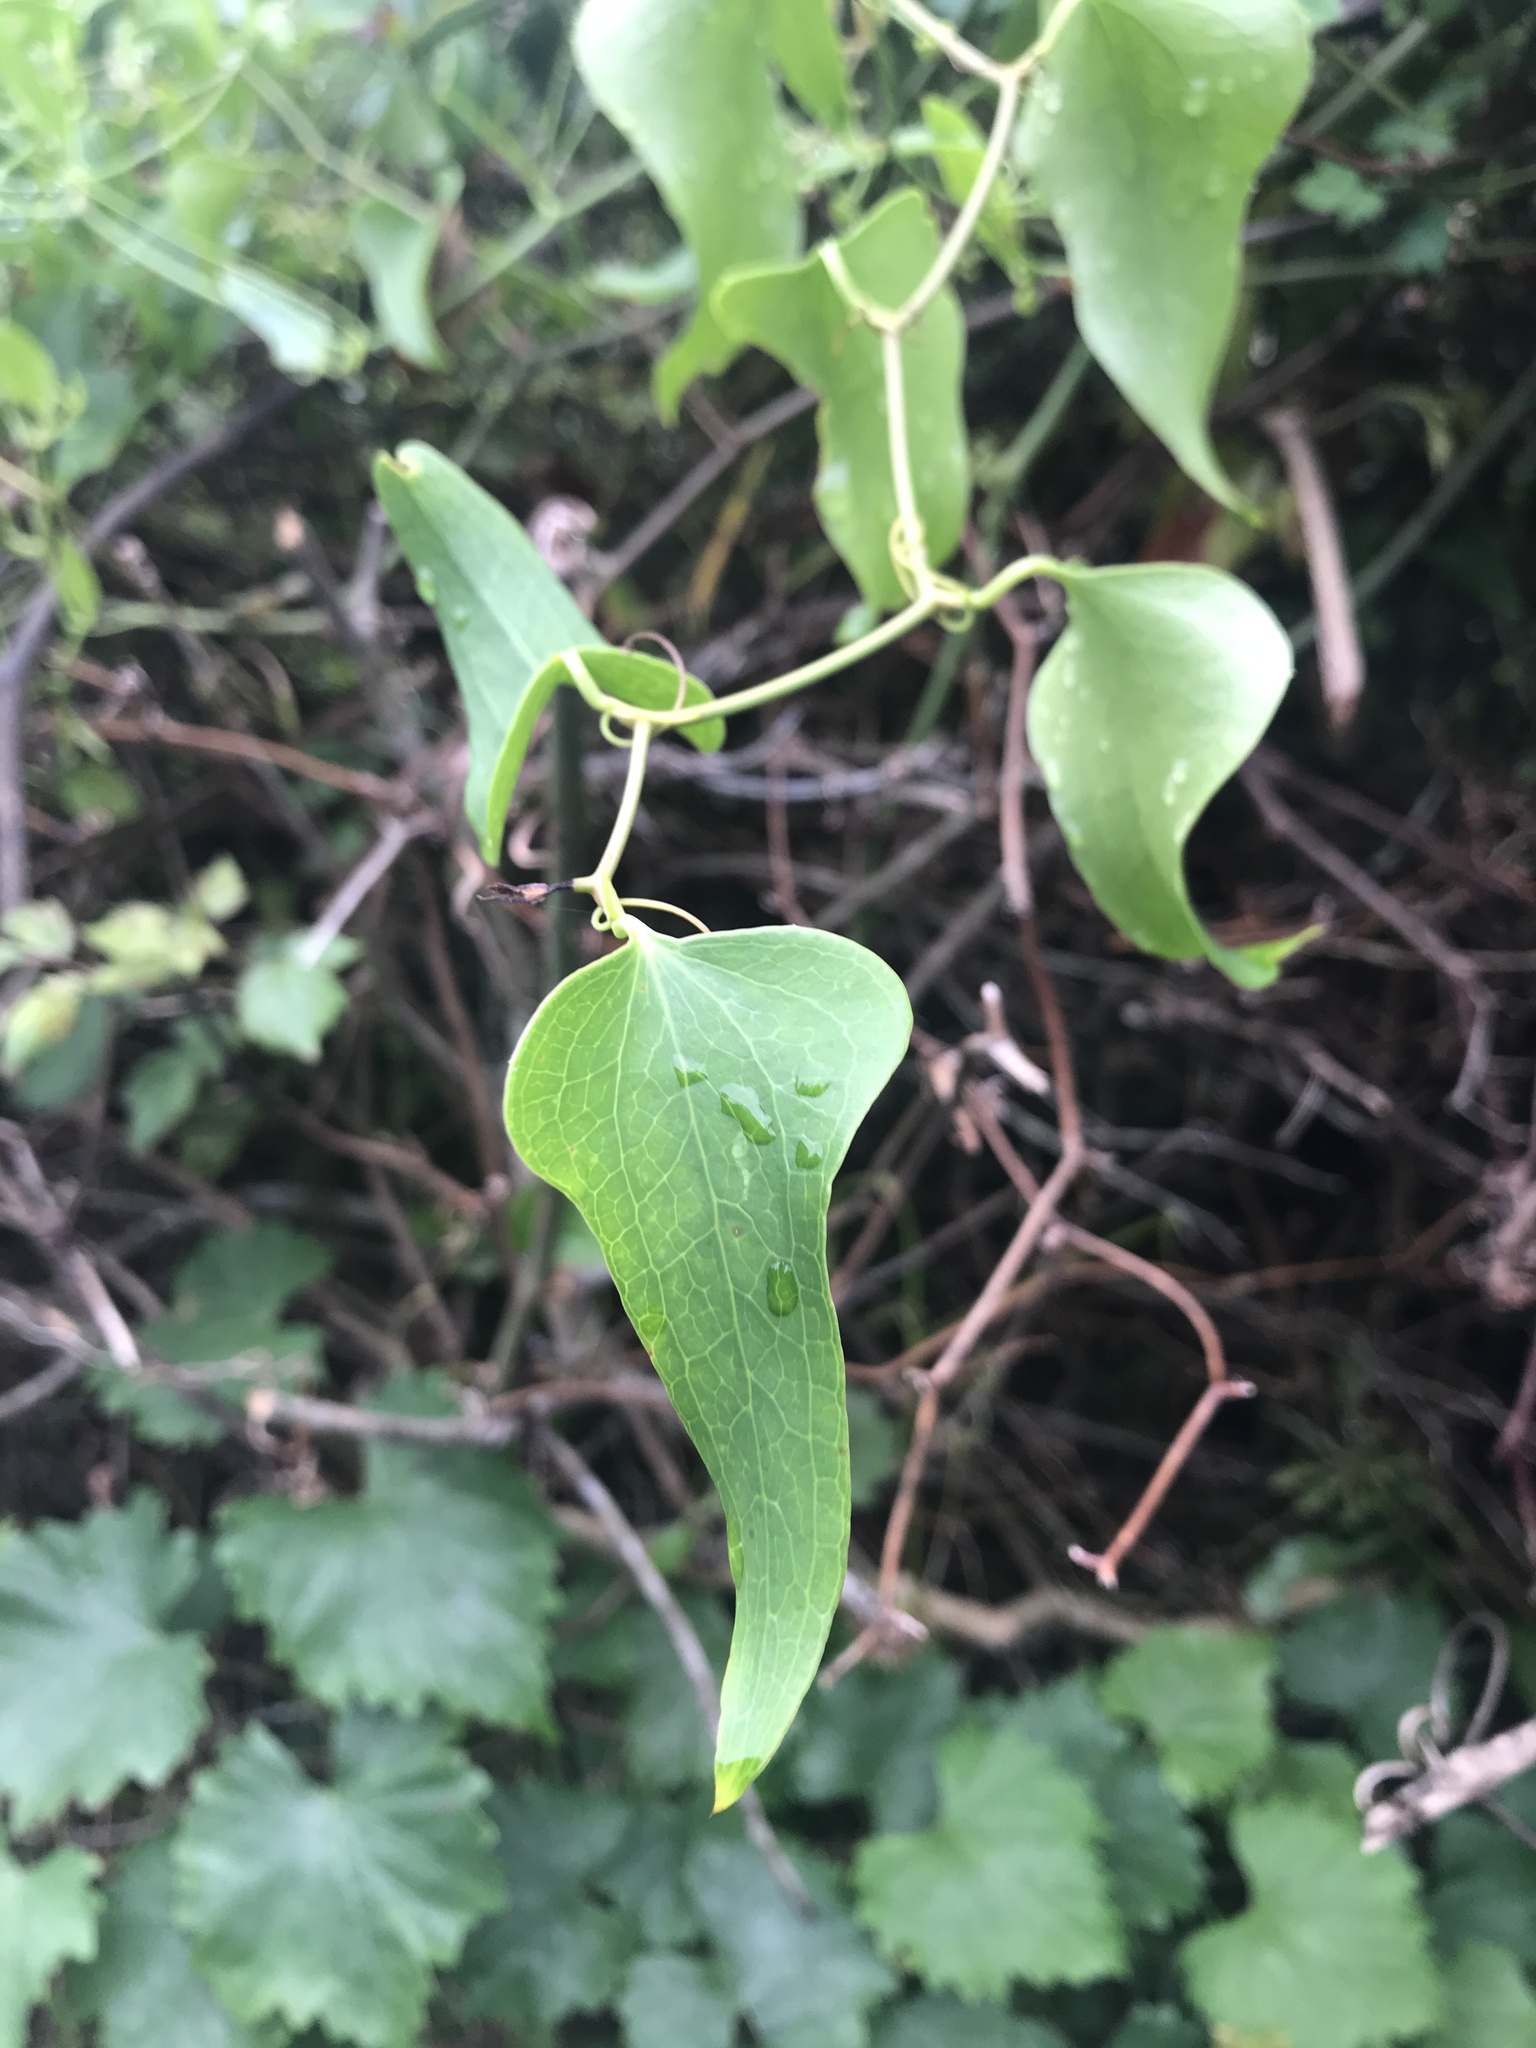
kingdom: Plantae
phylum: Tracheophyta
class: Liliopsida
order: Liliales
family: Smilacaceae
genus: Smilax
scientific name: Smilax auriculata
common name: Wild bamboo
